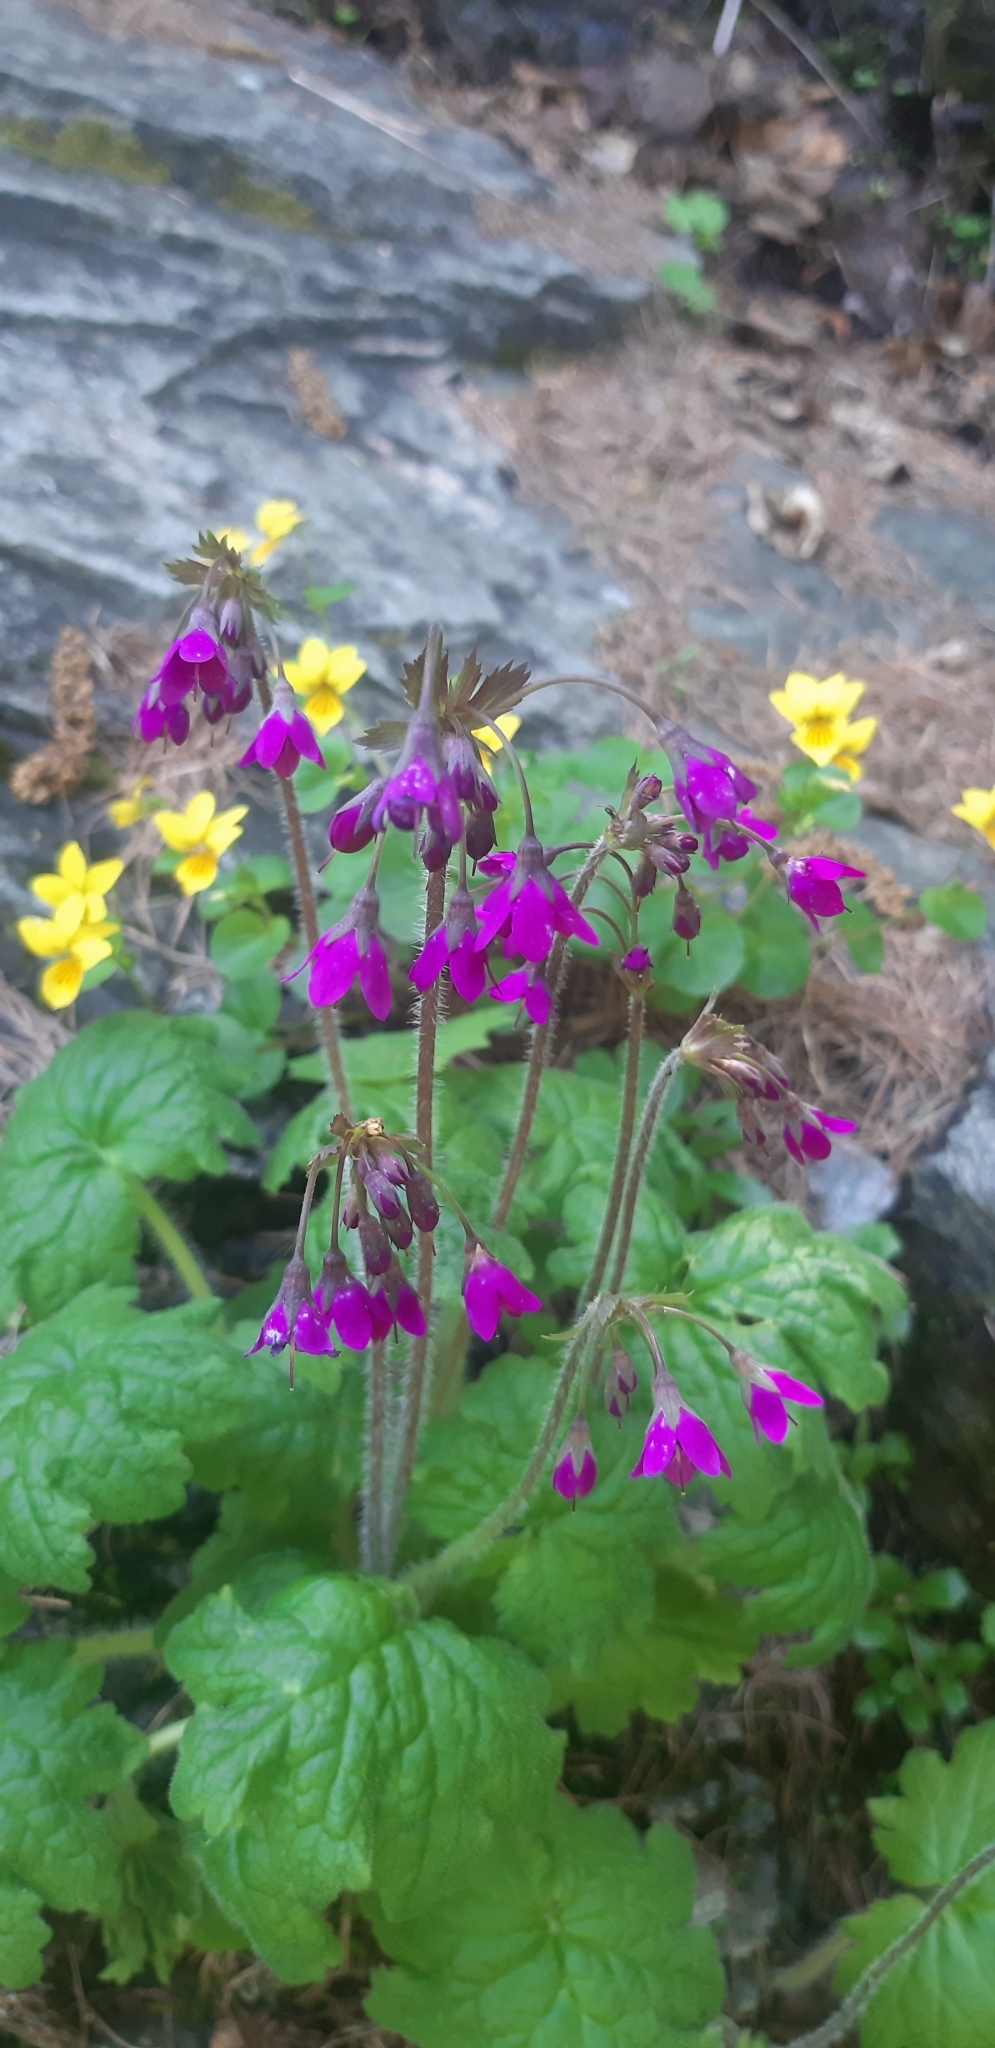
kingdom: Plantae
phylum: Tracheophyta
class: Magnoliopsida
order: Ericales
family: Primulaceae
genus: Primula
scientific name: Primula matthioli
